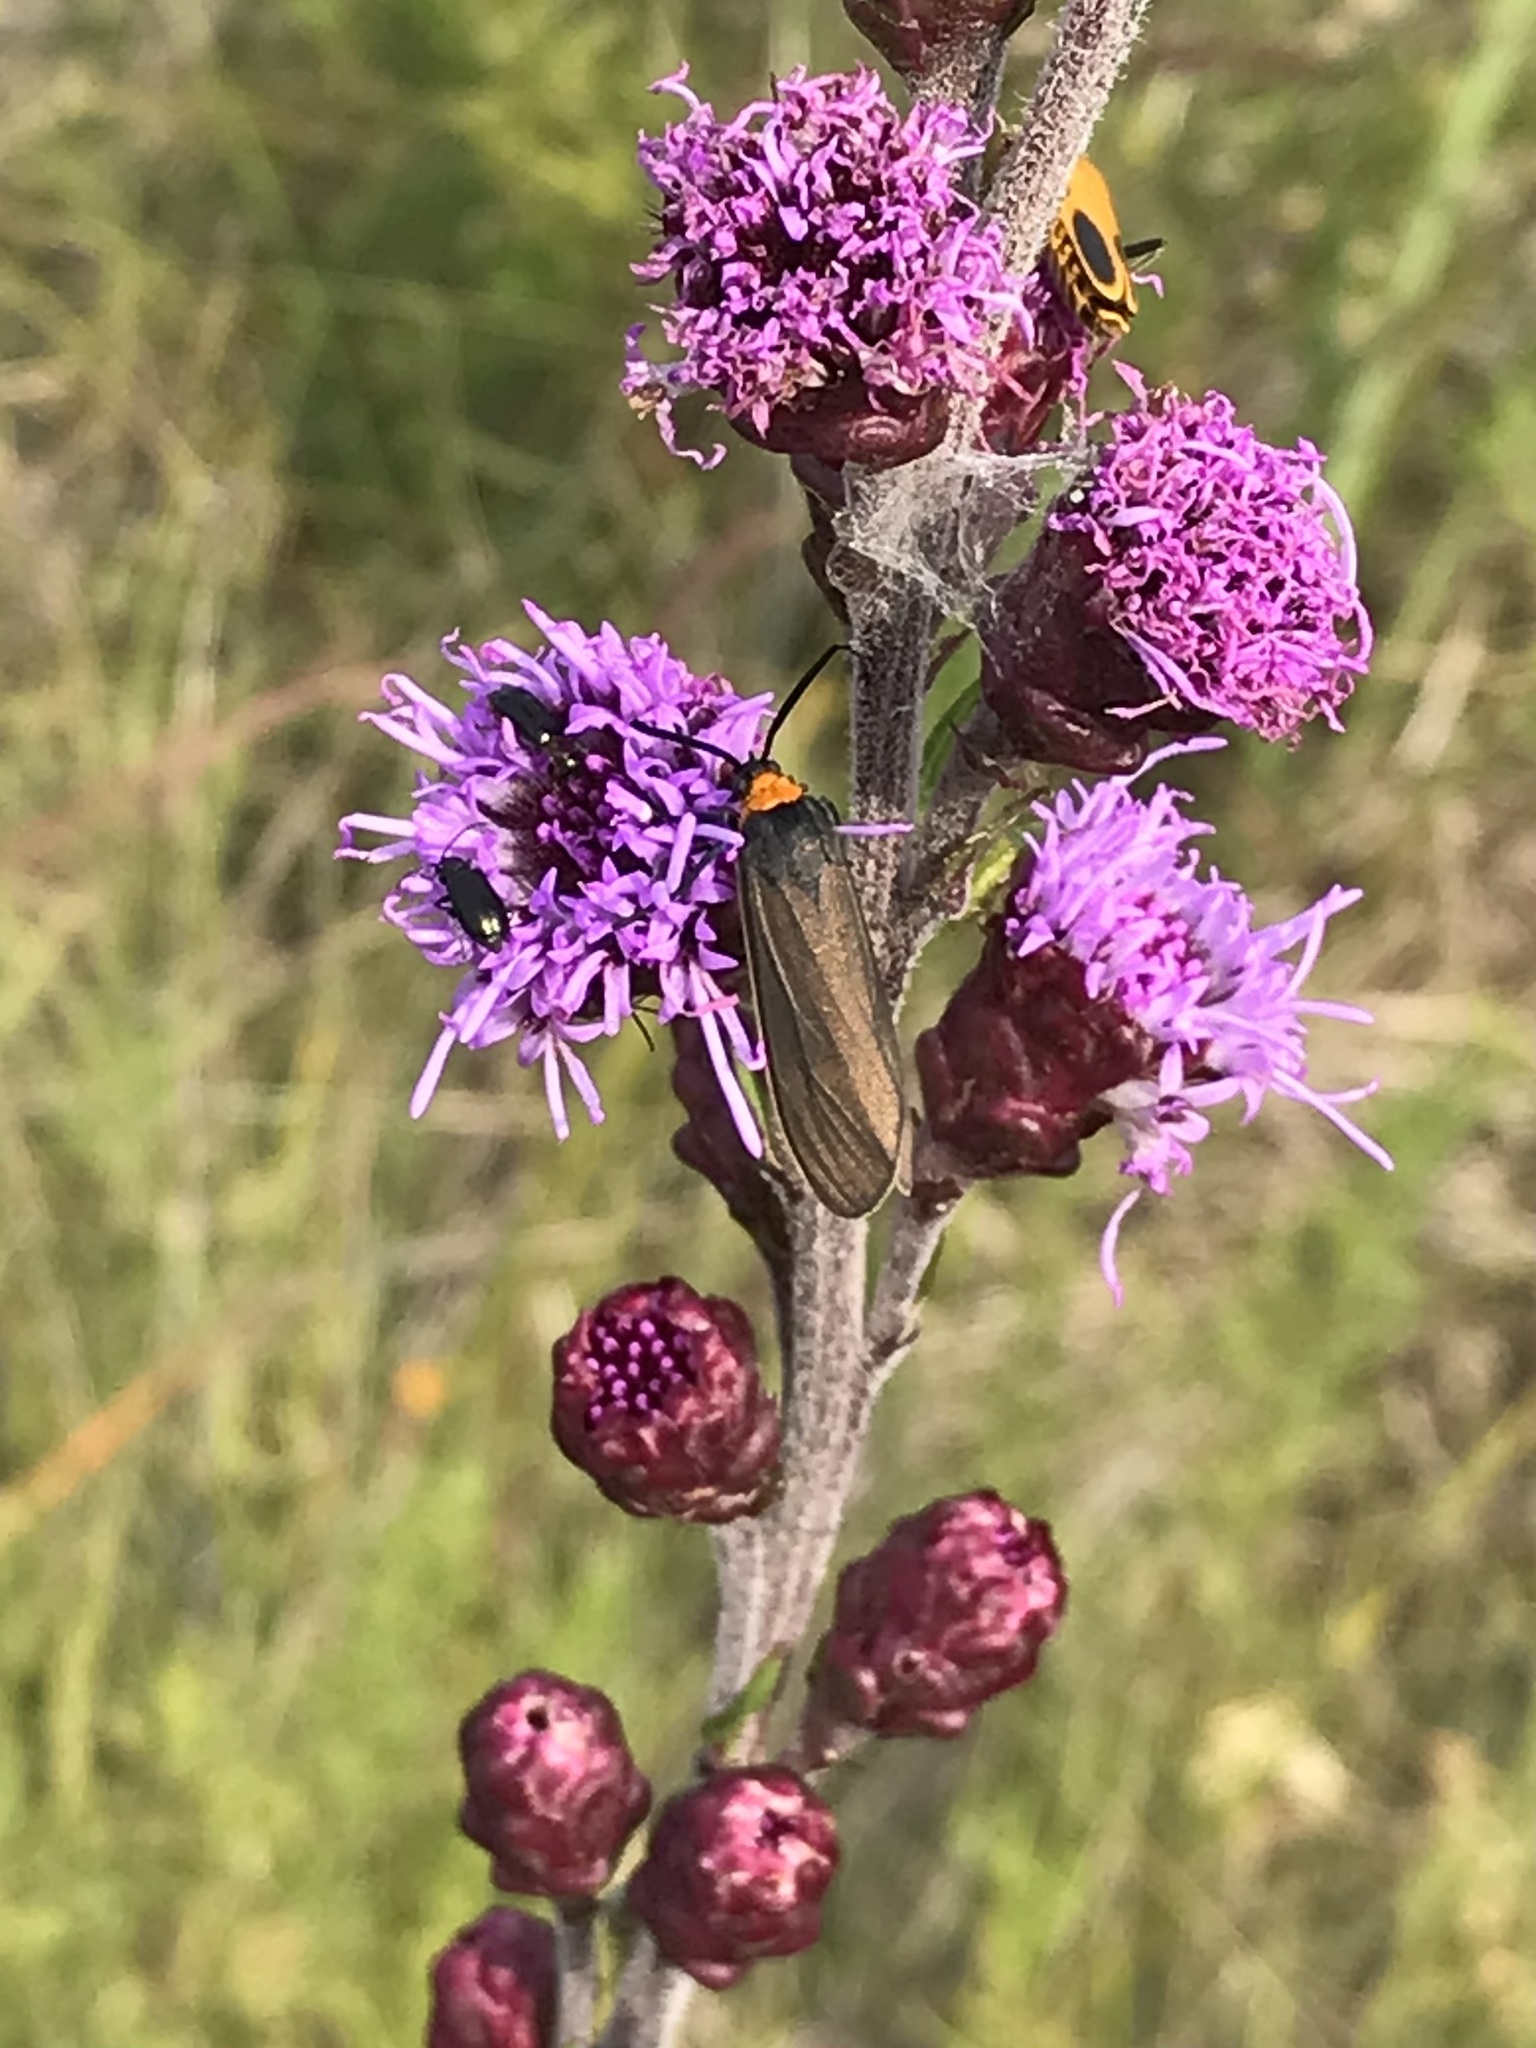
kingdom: Animalia
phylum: Arthropoda
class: Insecta
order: Lepidoptera
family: Erebidae
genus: Cisseps
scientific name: Cisseps fulvicollis
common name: Yellow-collared scape moth
